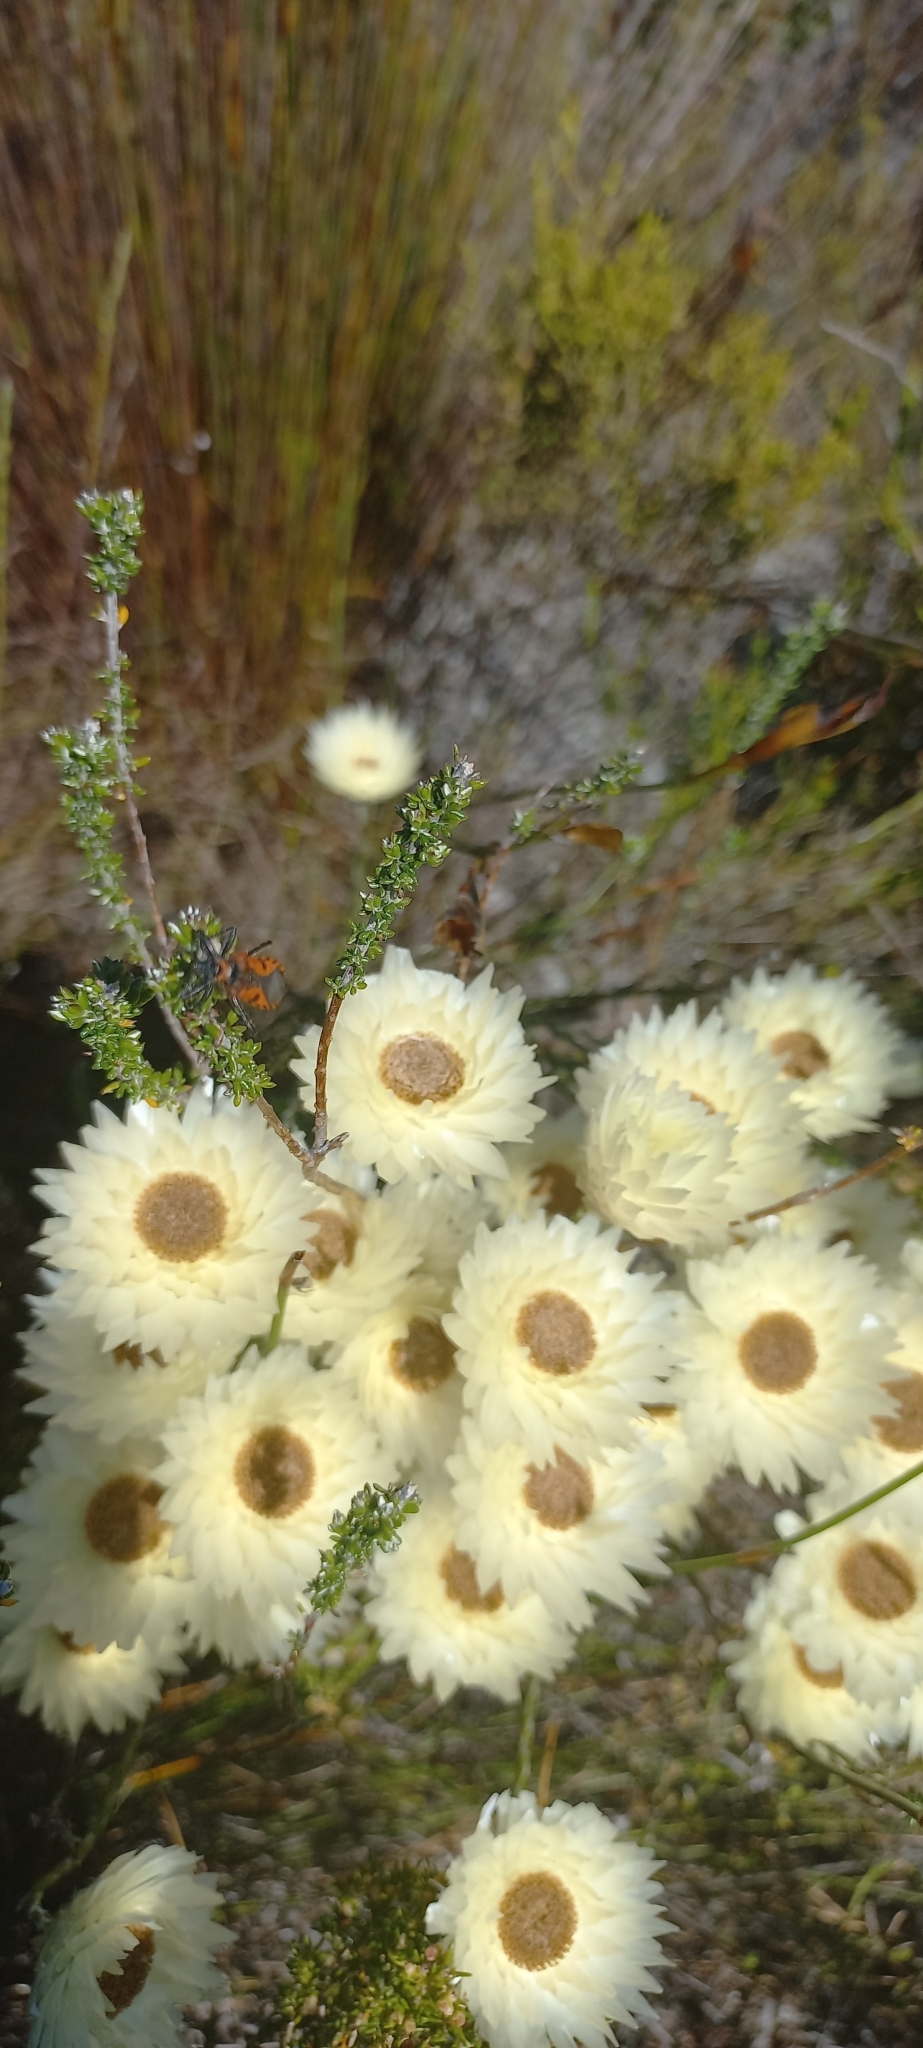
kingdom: Plantae
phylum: Tracheophyta
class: Magnoliopsida
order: Asterales
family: Asteraceae
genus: Edmondia
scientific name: Edmondia sesamoides
